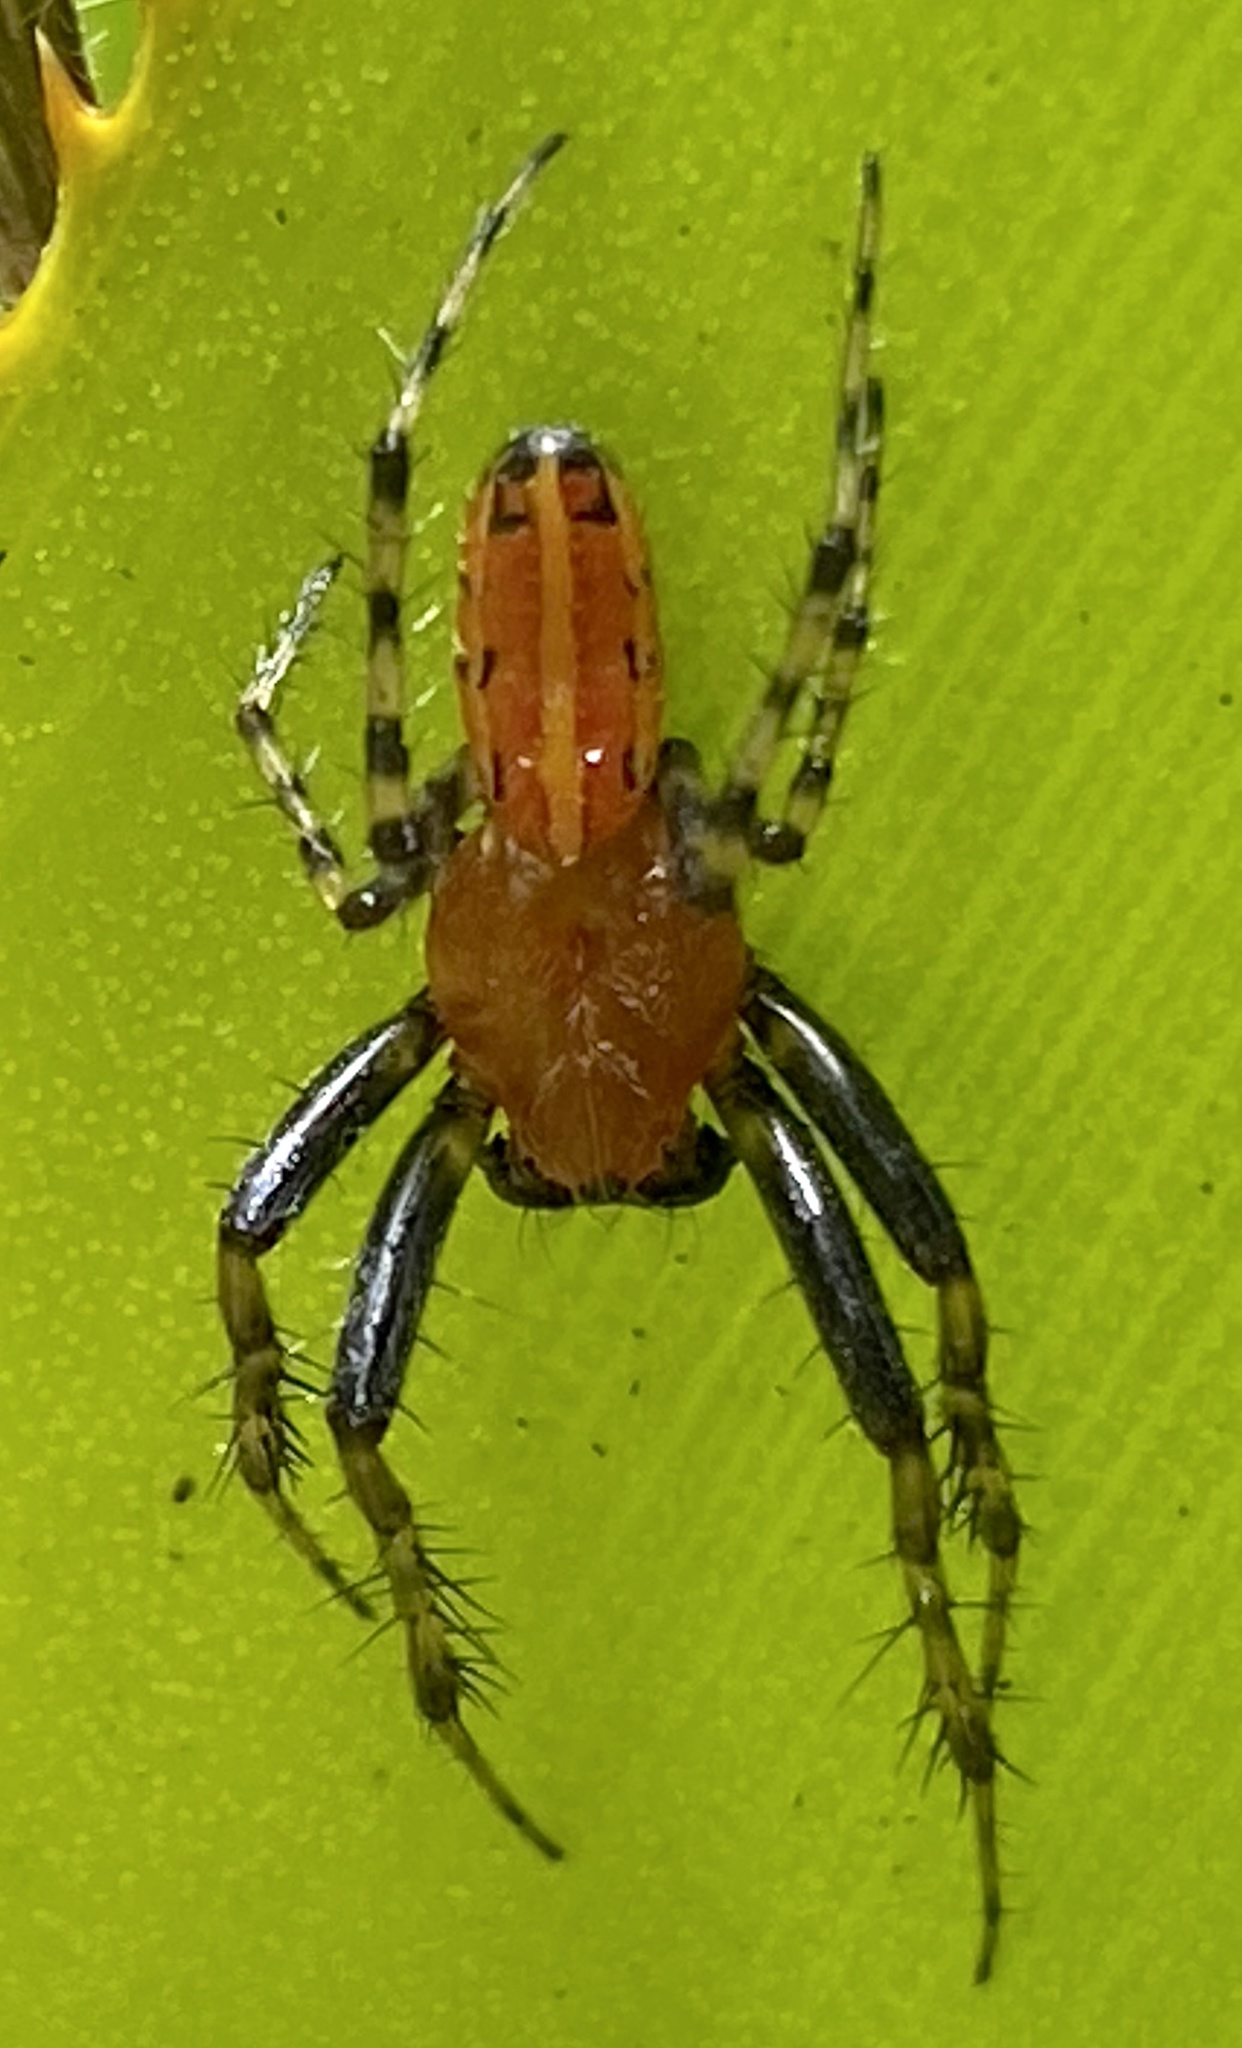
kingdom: Animalia
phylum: Arthropoda
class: Arachnida
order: Araneae
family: Araneidae
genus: Alpaida
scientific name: Alpaida grayi
